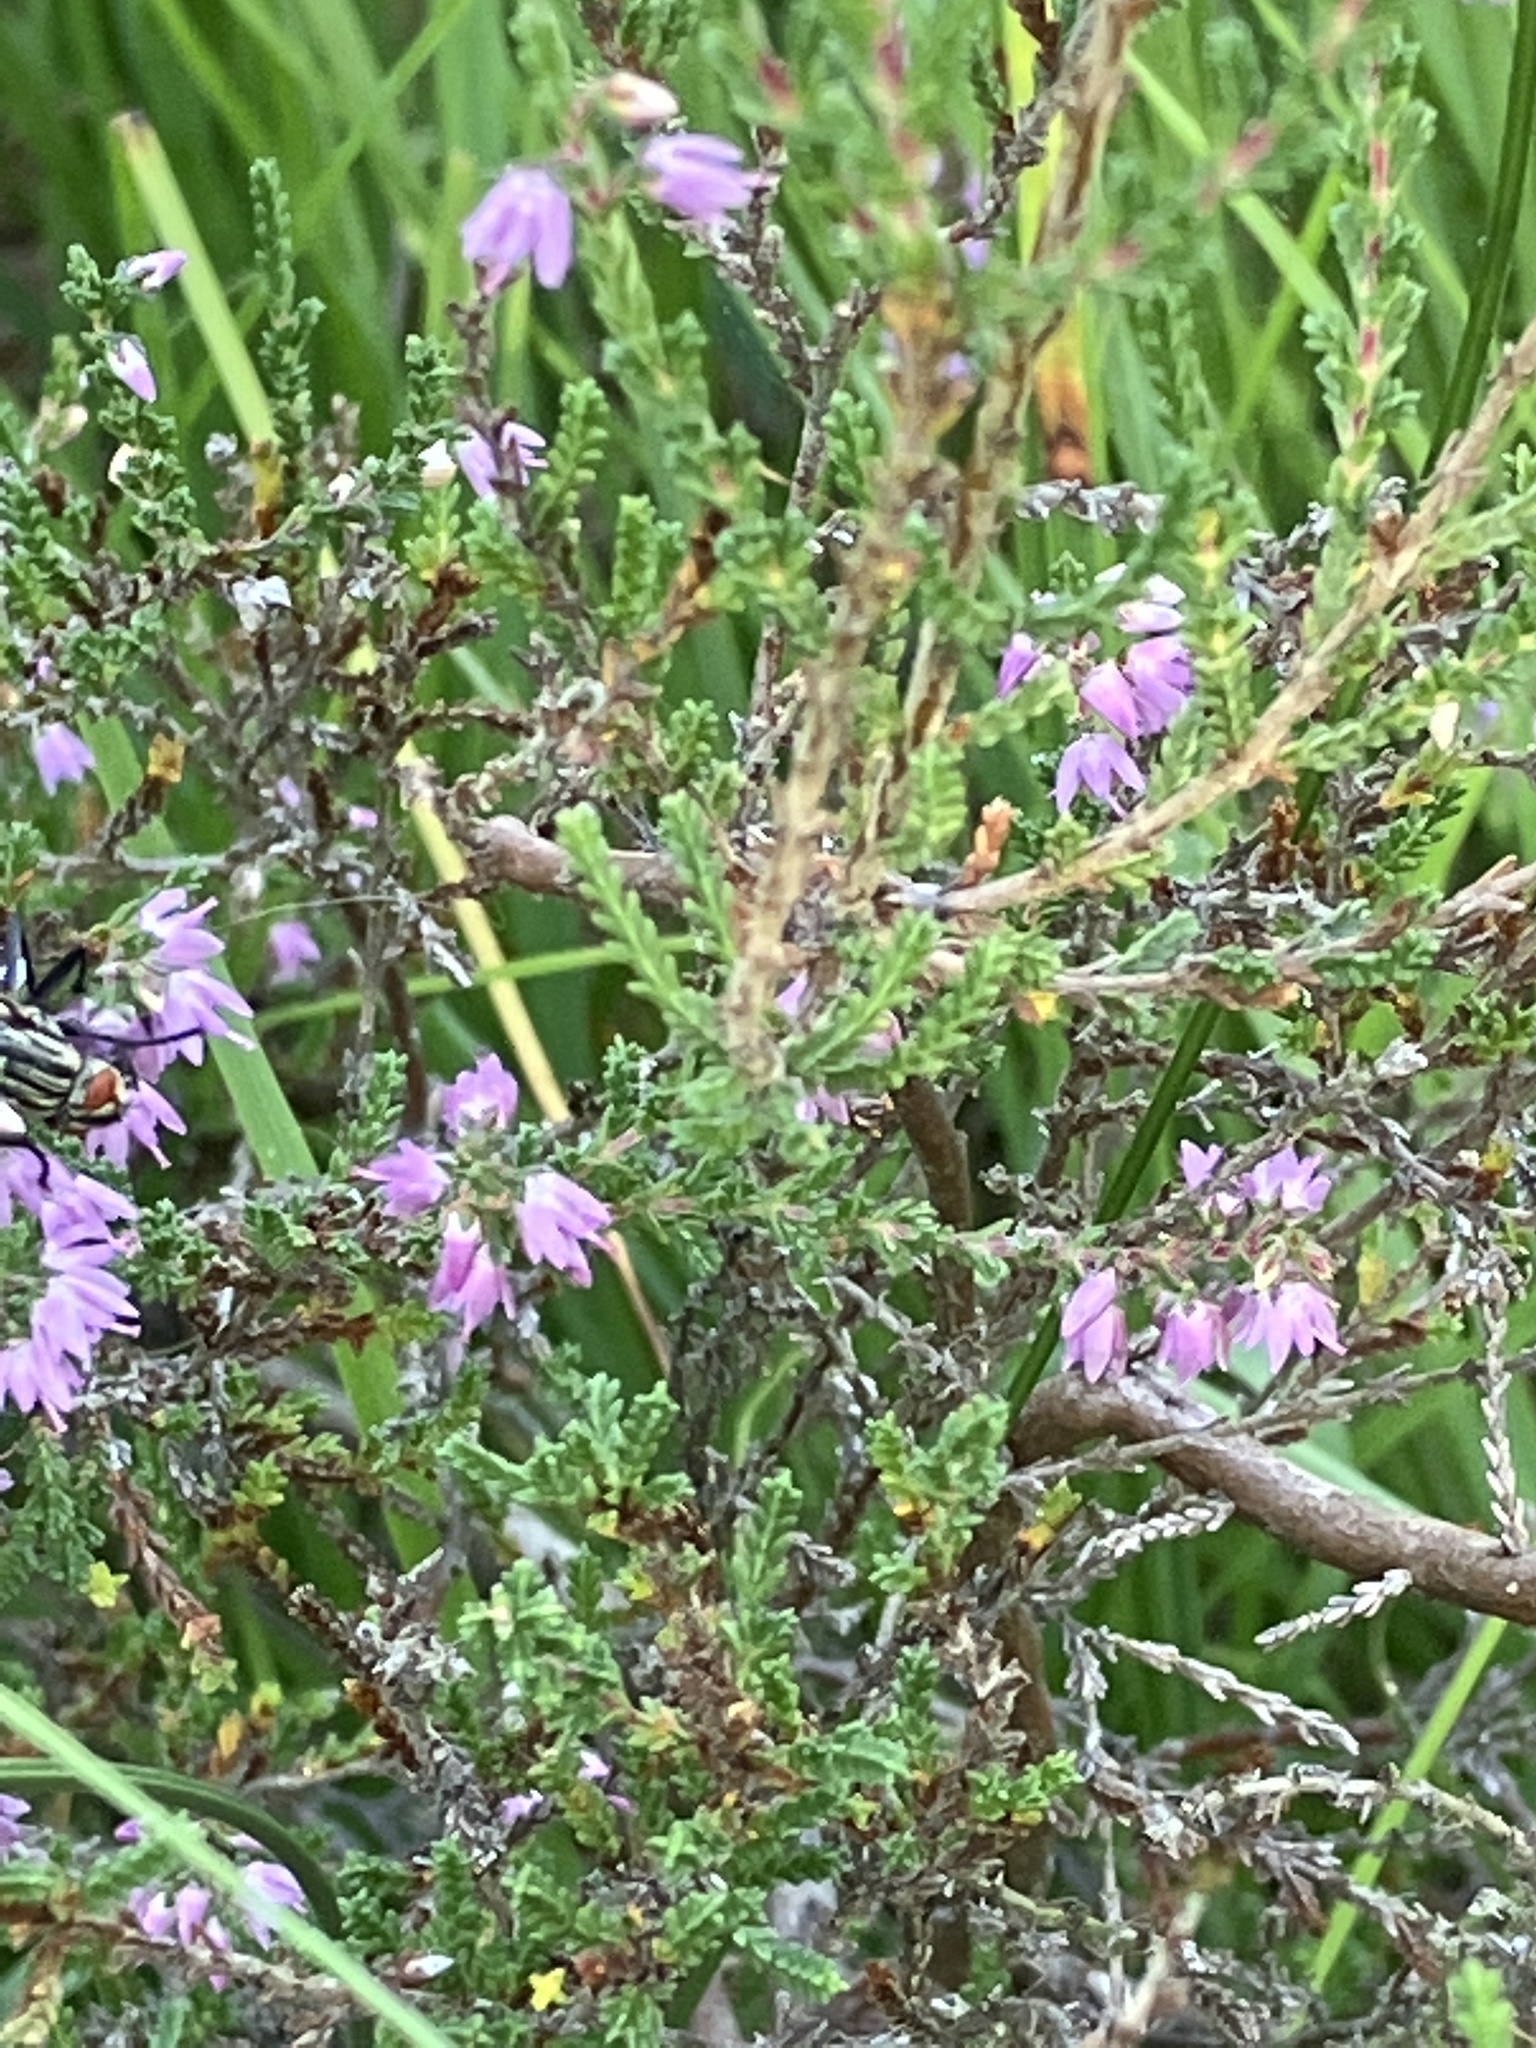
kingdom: Plantae
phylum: Tracheophyta
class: Magnoliopsida
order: Ericales
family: Ericaceae
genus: Calluna
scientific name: Calluna vulgaris
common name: Heather
